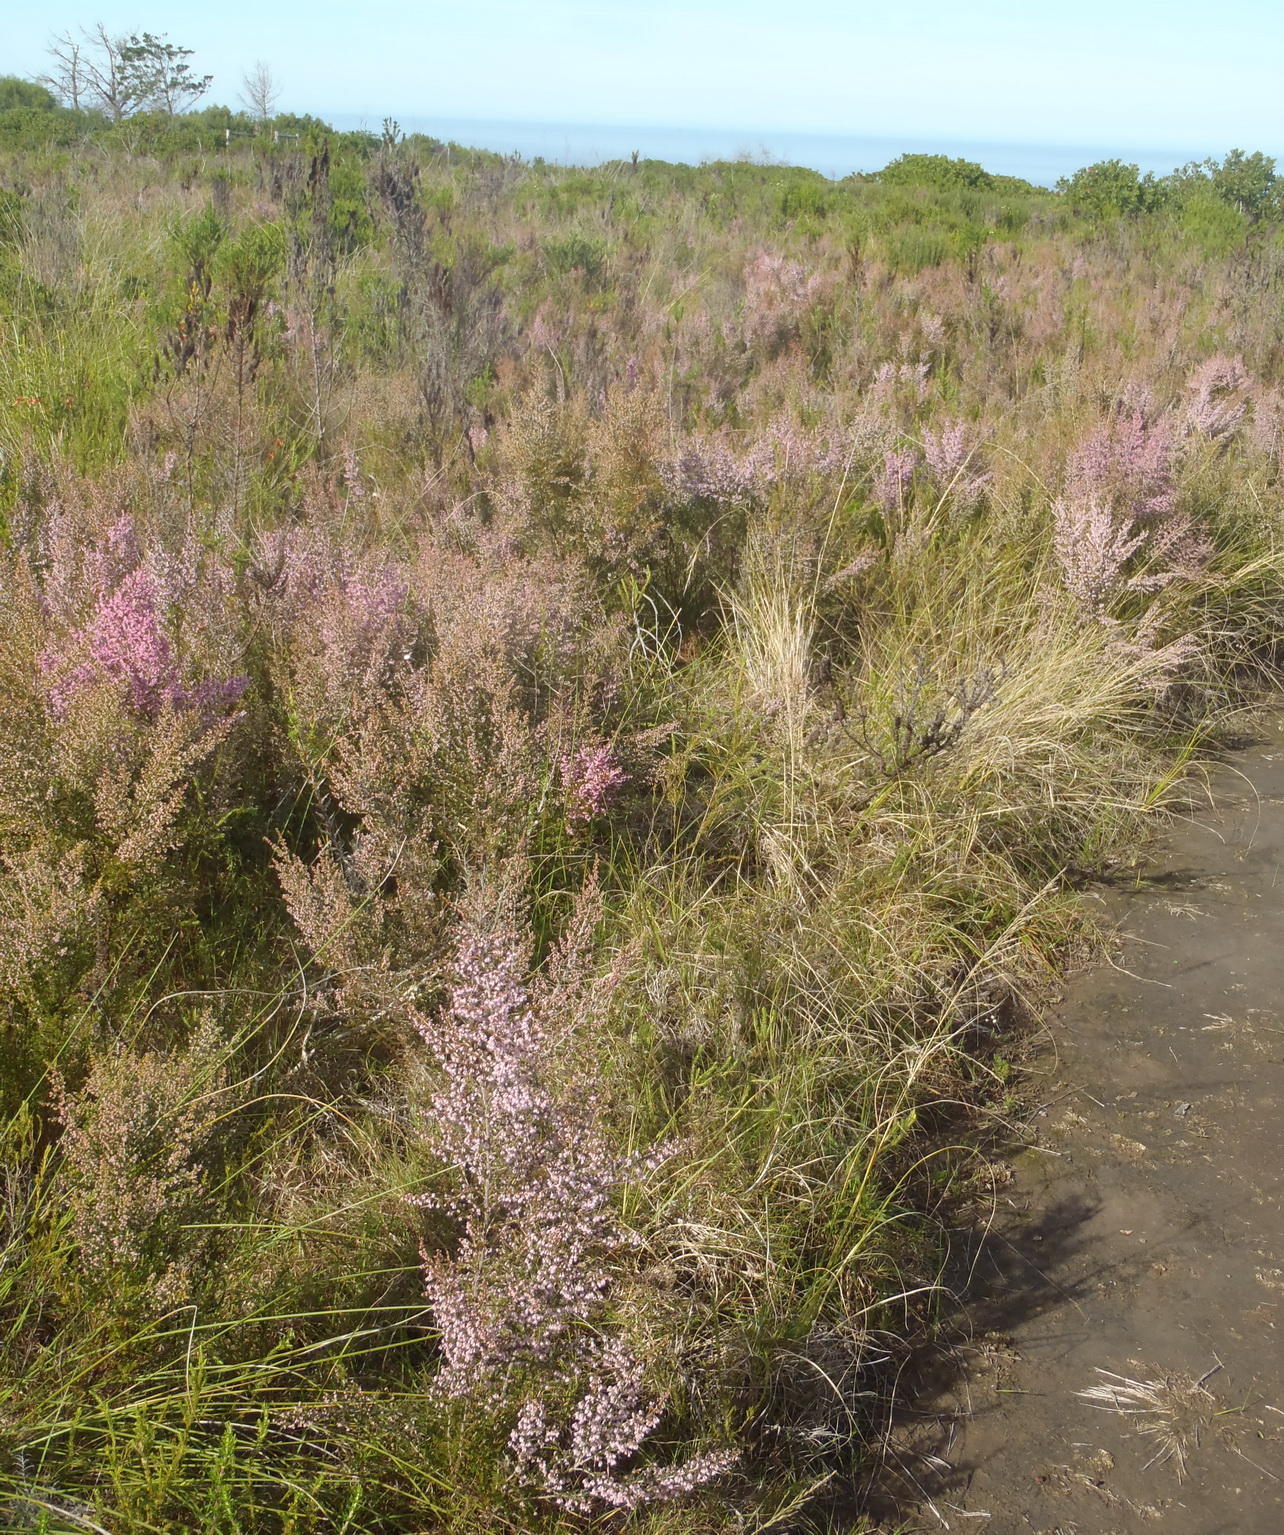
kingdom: Plantae
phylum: Tracheophyta
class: Magnoliopsida
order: Ericales
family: Ericaceae
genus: Erica
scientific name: Erica sparsa
